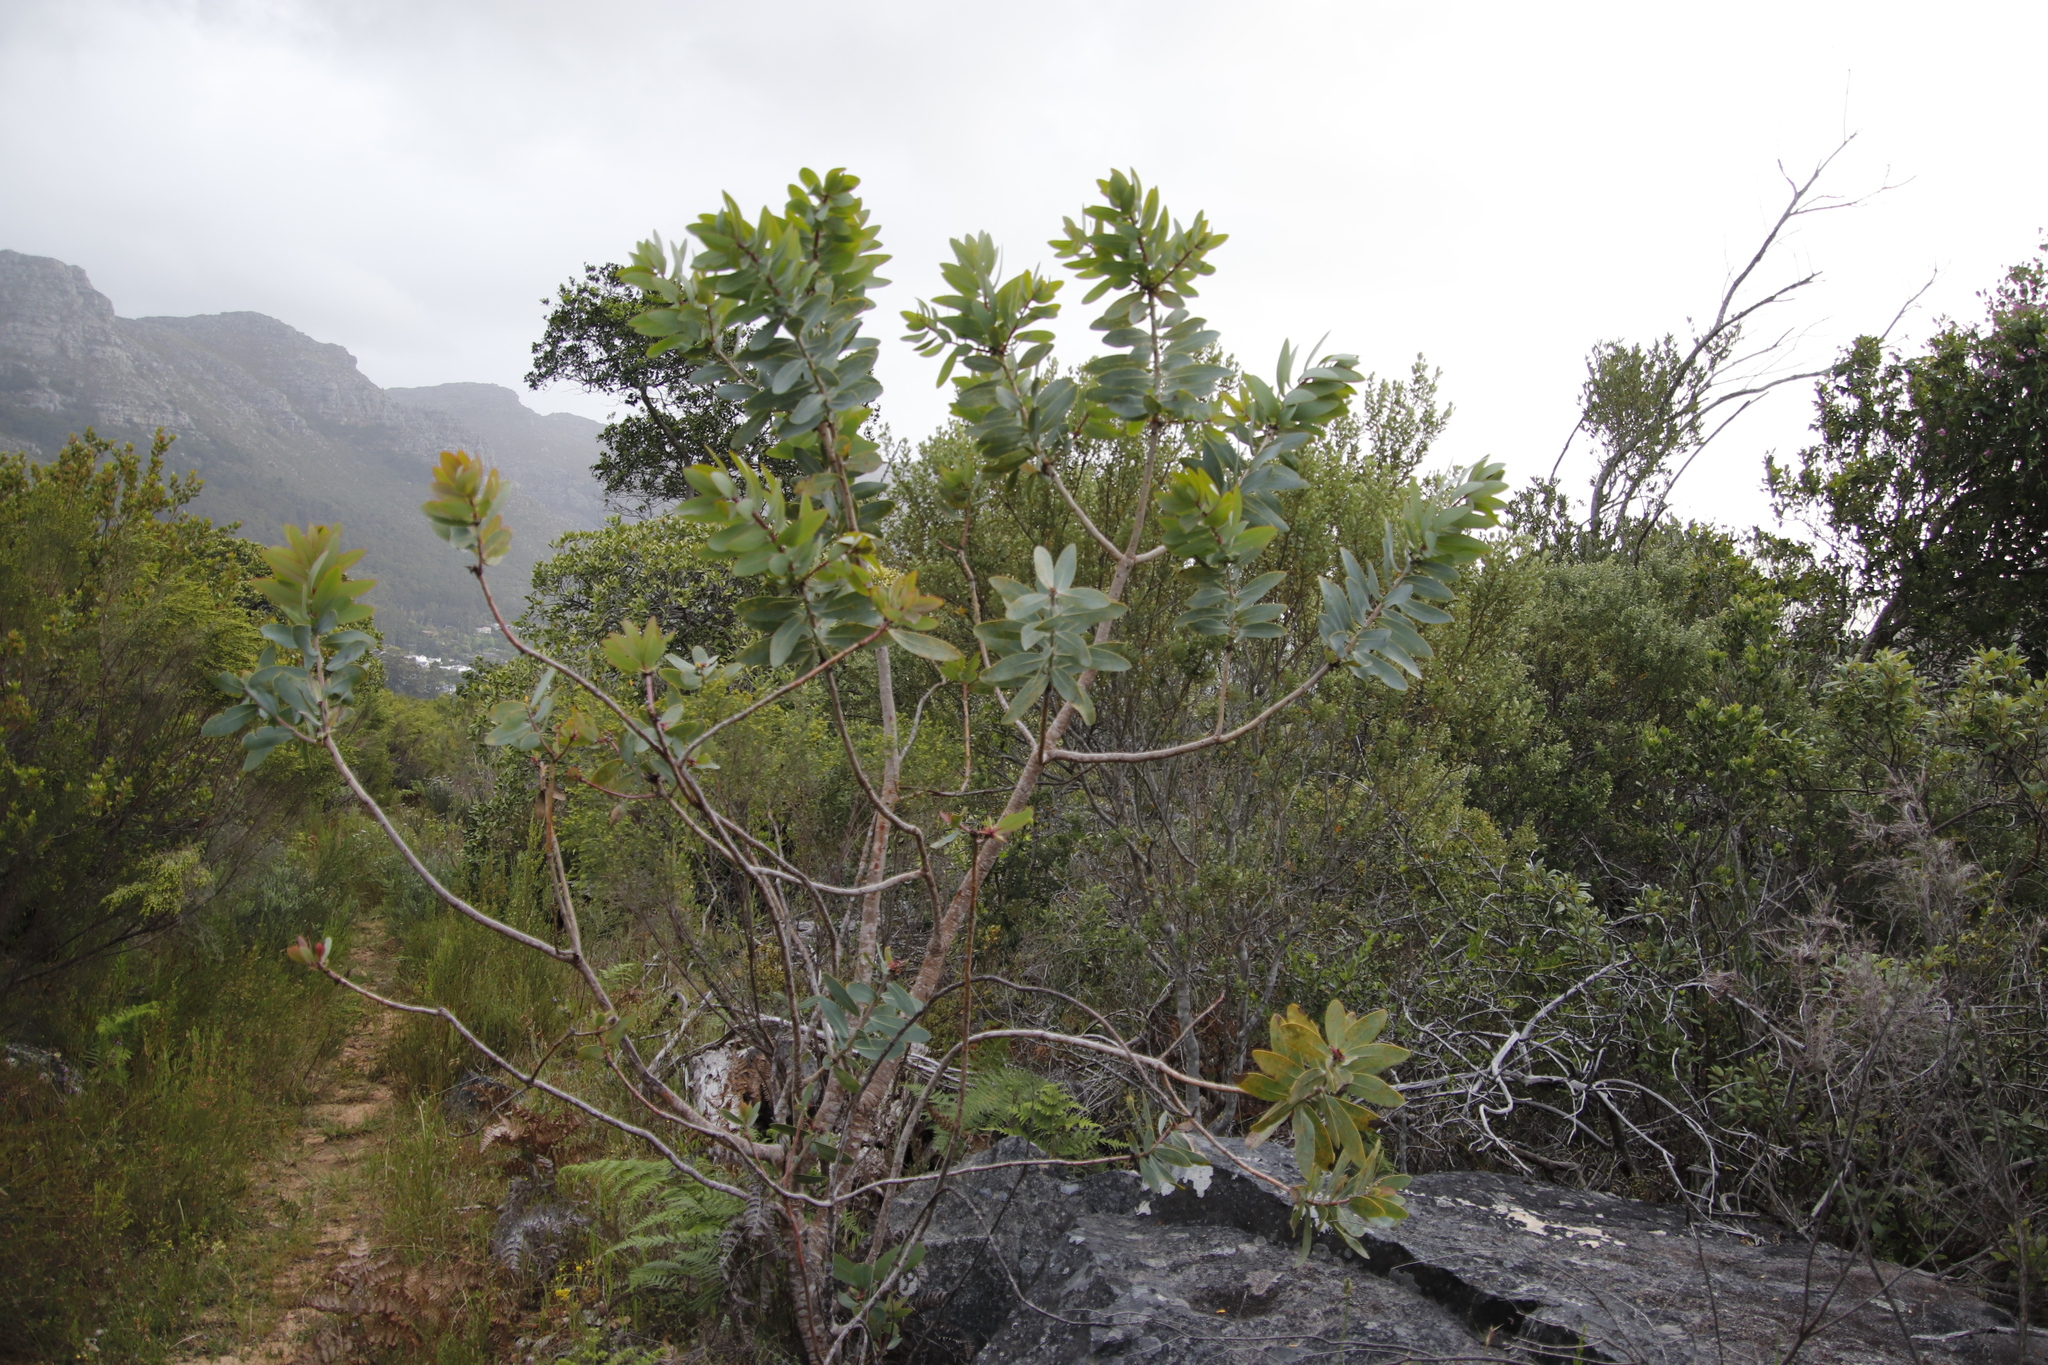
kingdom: Plantae
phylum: Tracheophyta
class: Magnoliopsida
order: Proteales
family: Proteaceae
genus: Protea
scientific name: Protea nitida
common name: Tree protea
